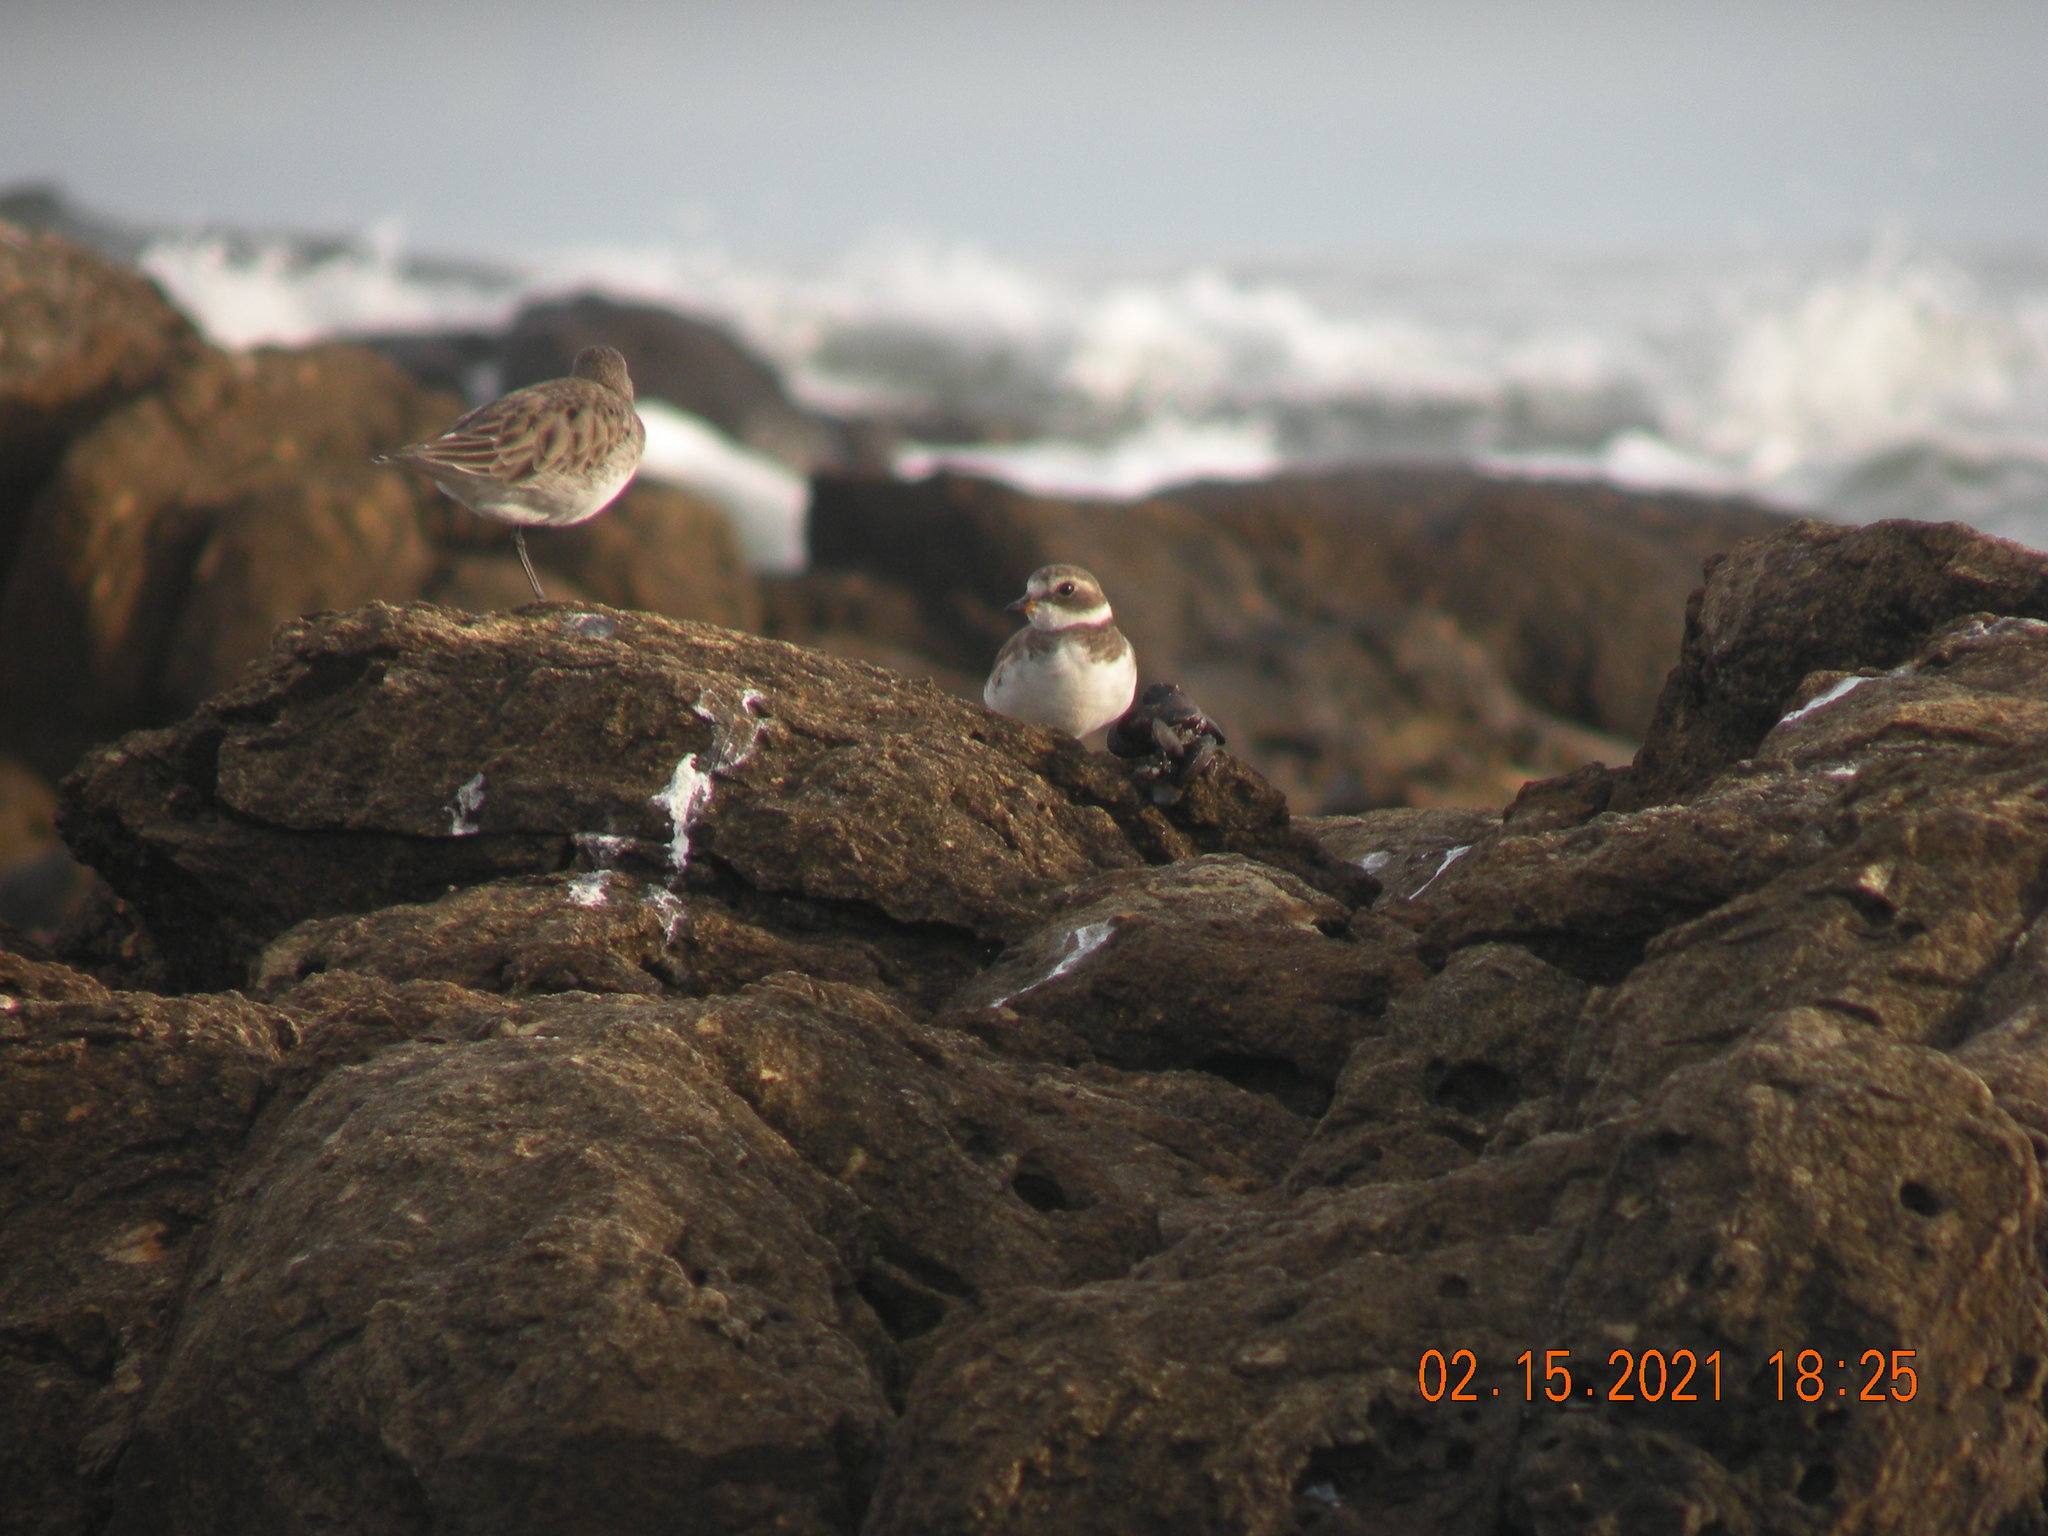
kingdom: Animalia
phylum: Chordata
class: Aves
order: Charadriiformes
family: Charadriidae
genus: Charadrius
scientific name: Charadrius semipalmatus
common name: Semipalmated plover
